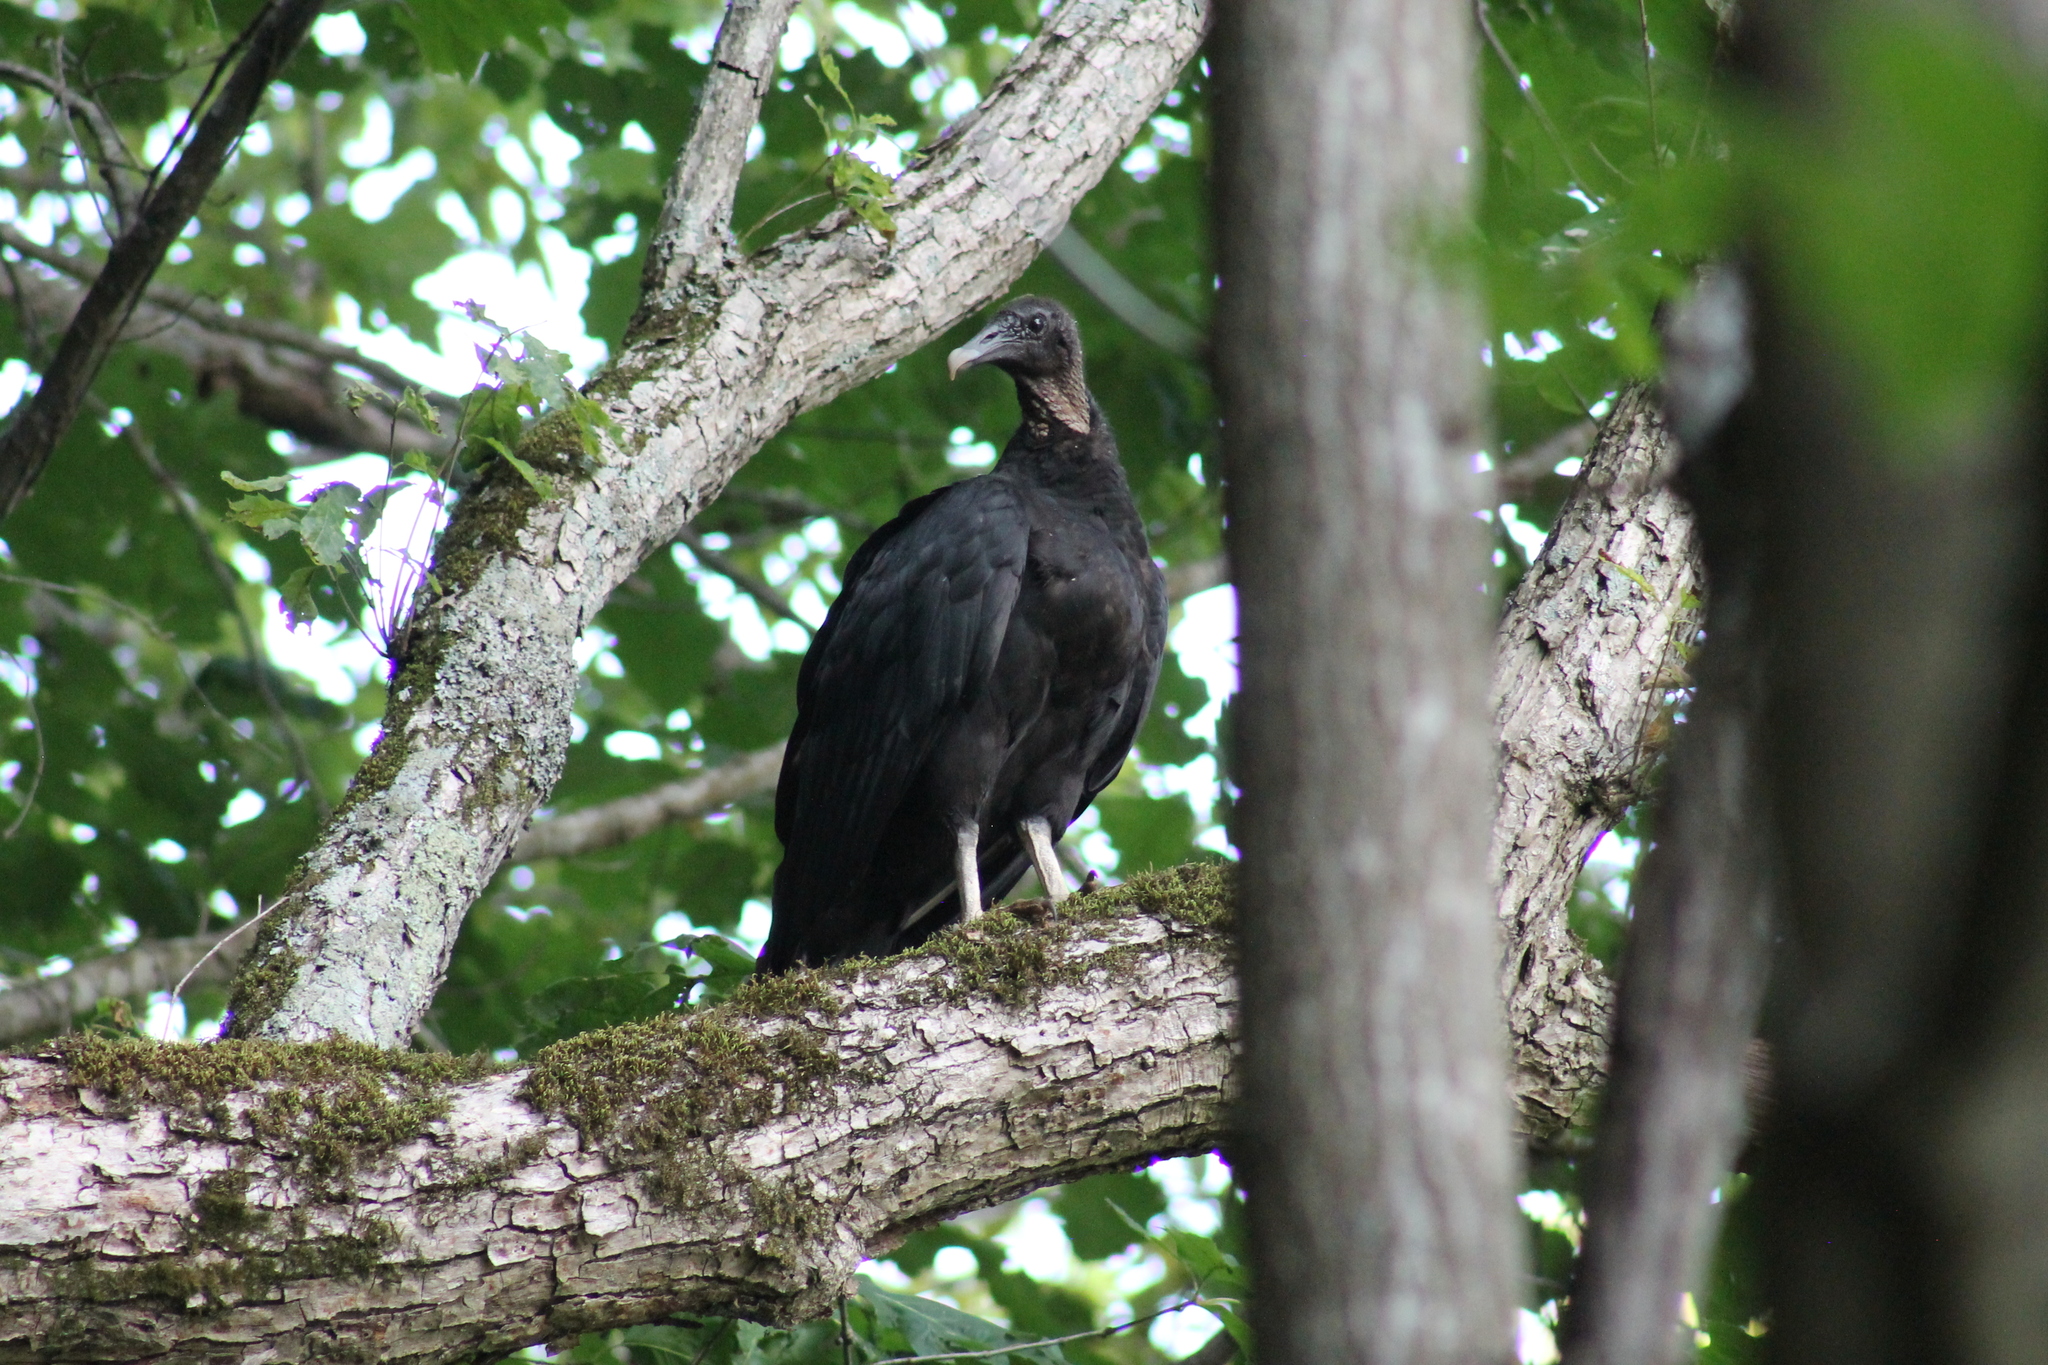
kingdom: Animalia
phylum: Chordata
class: Aves
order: Accipitriformes
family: Cathartidae
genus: Coragyps
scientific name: Coragyps atratus
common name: Black vulture
